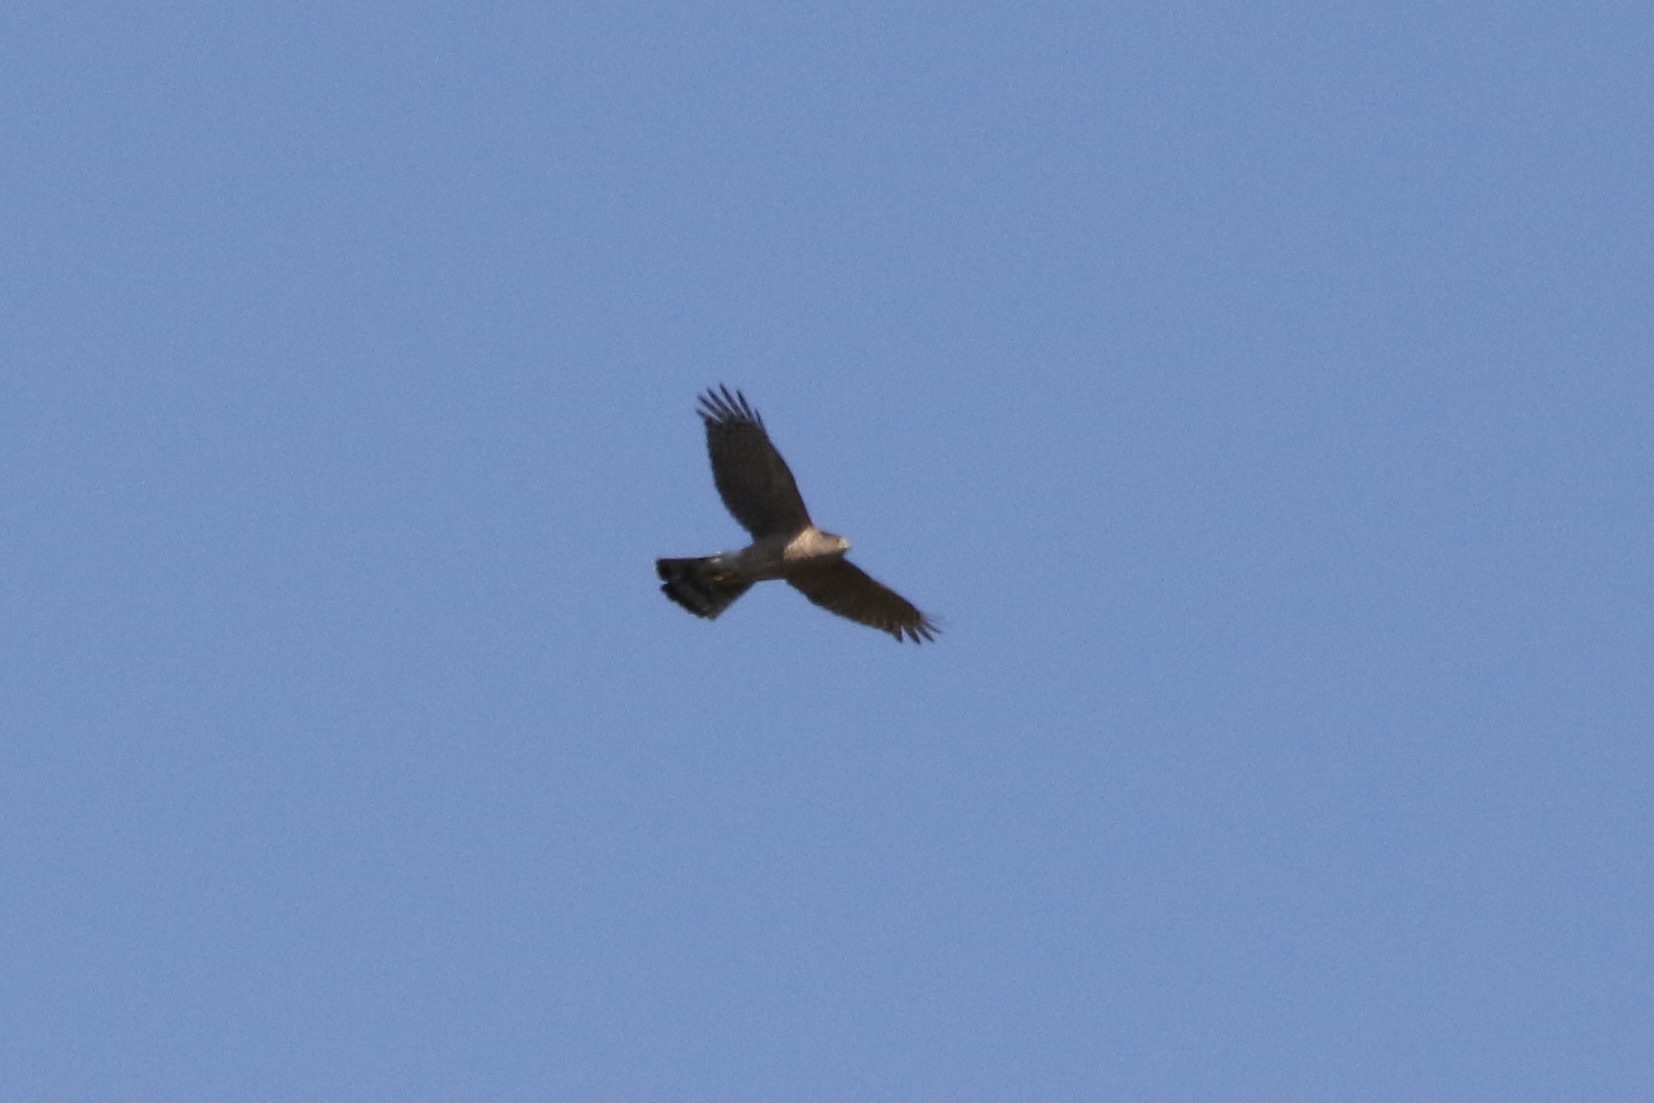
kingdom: Animalia
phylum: Chordata
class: Aves
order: Accipitriformes
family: Accipitridae
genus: Accipiter
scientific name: Accipiter cooperii
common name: Cooper's hawk
